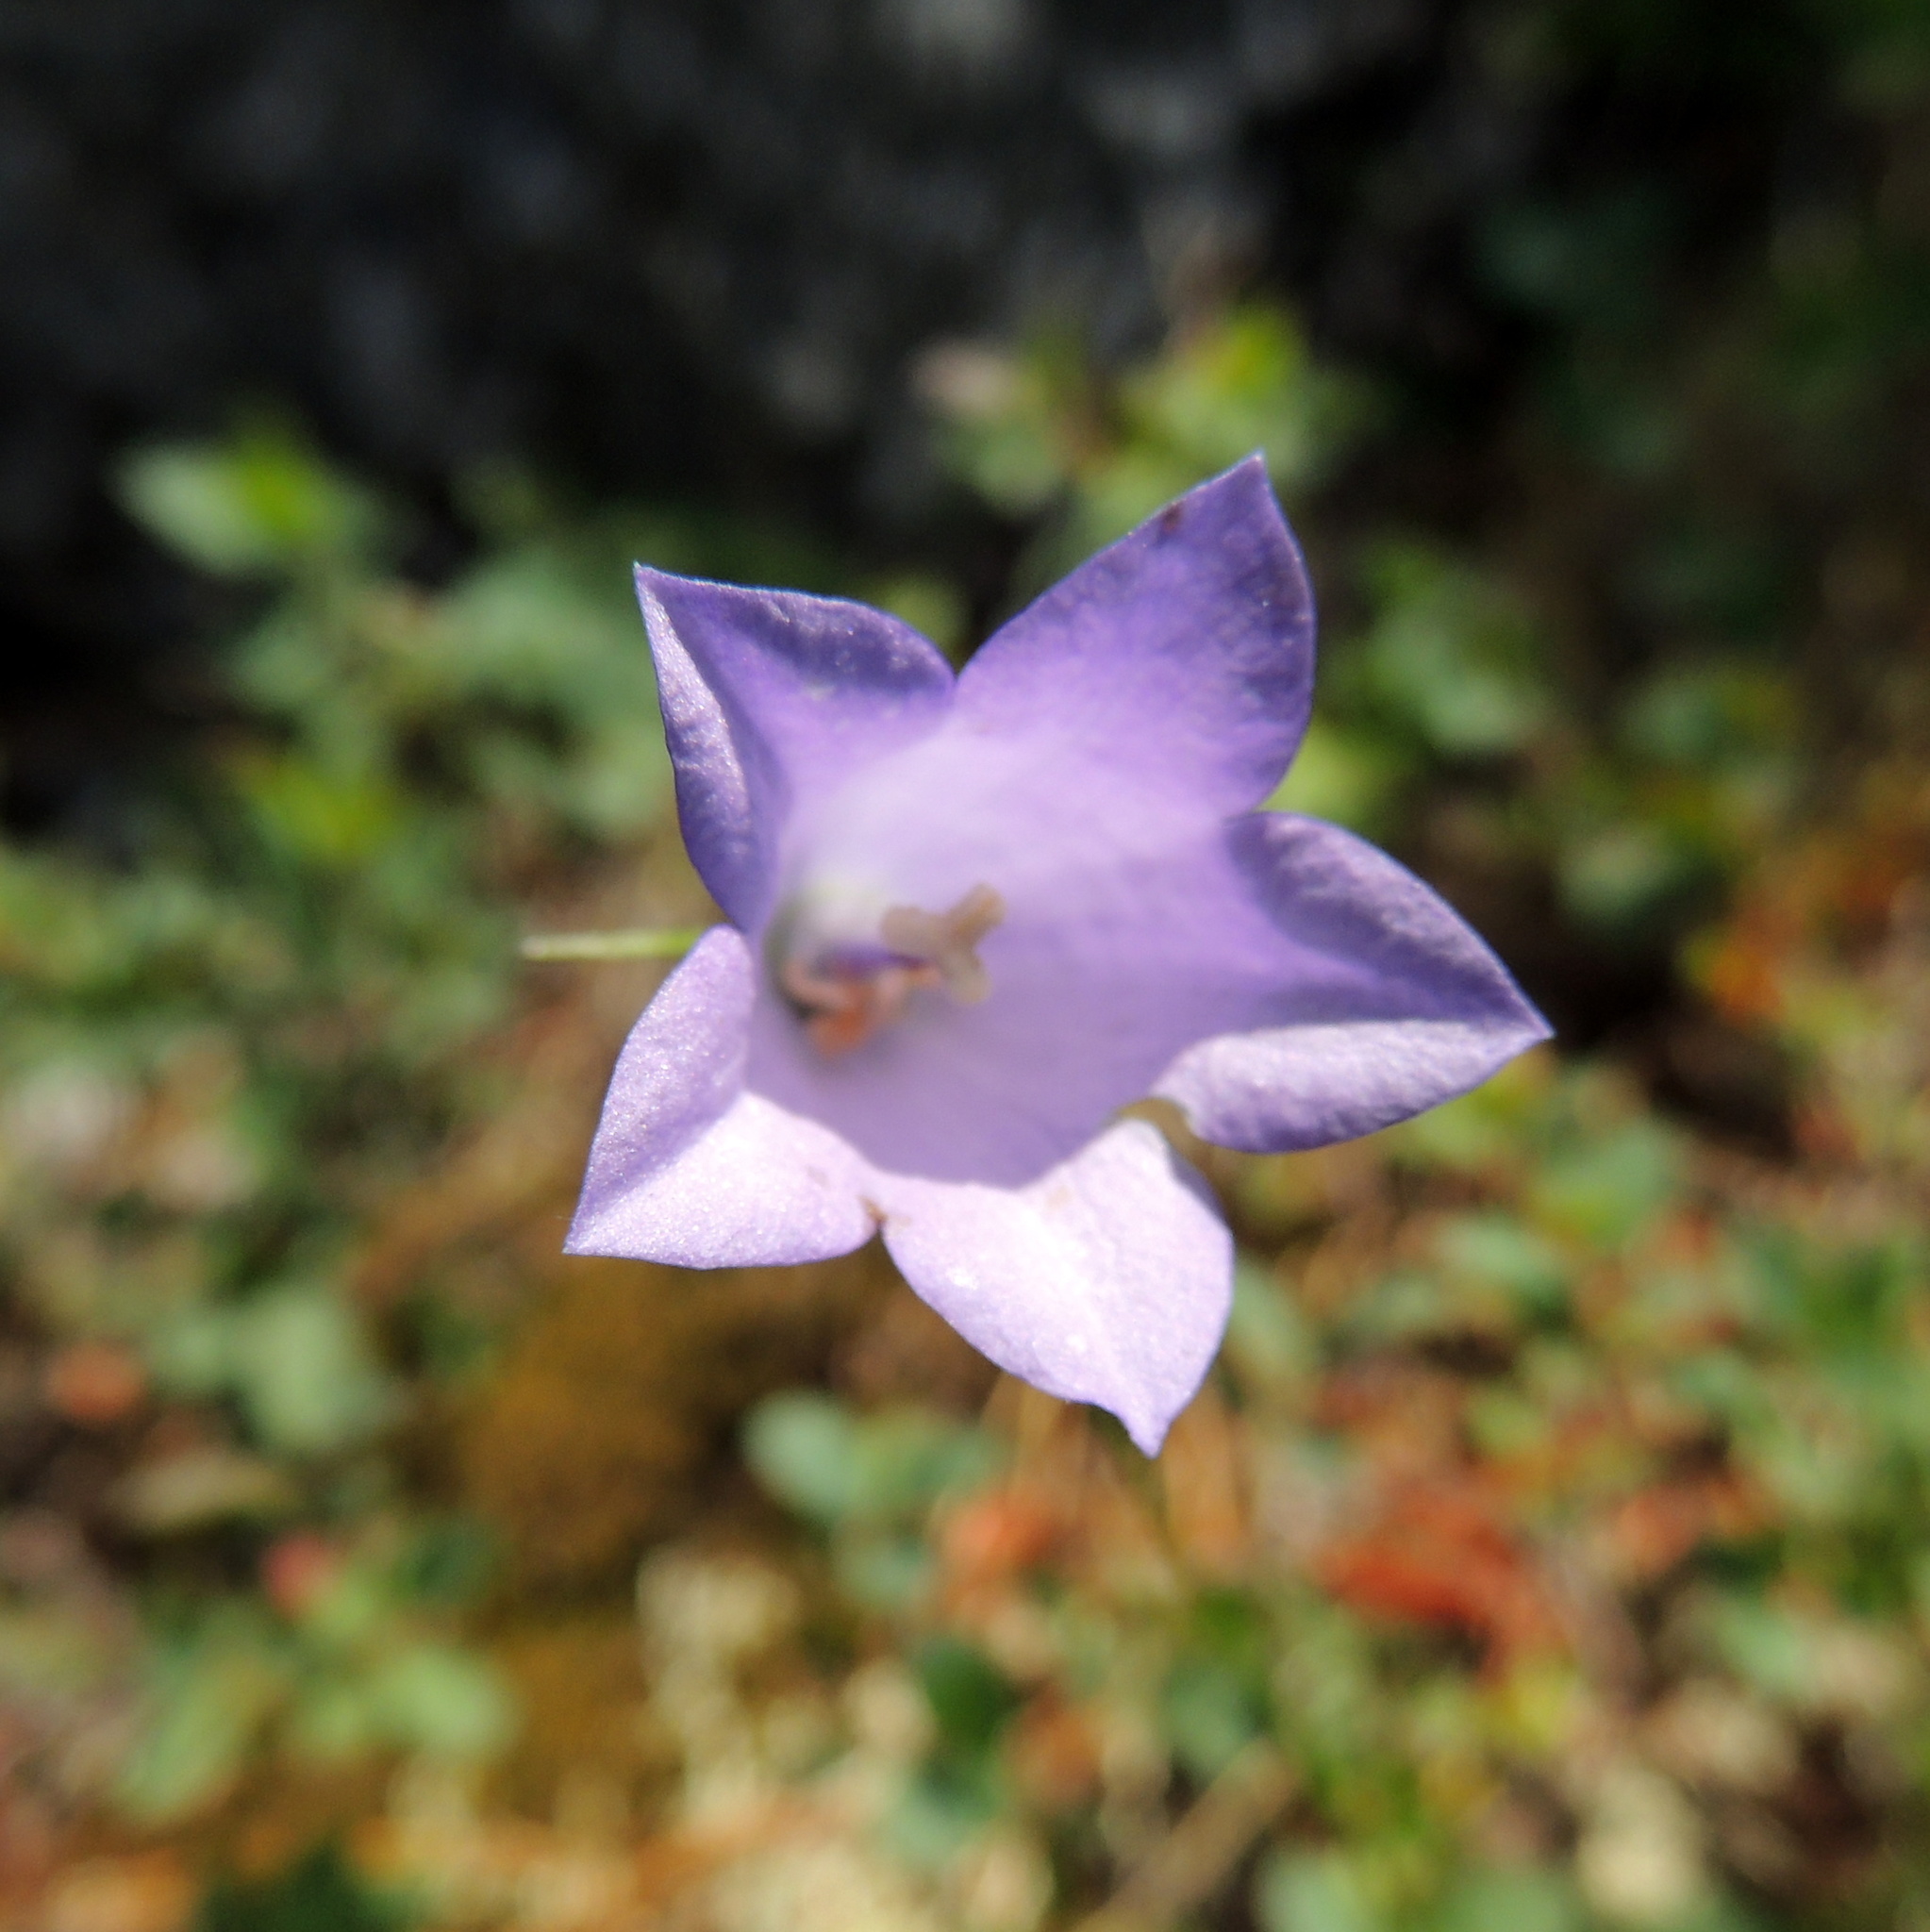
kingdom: Plantae
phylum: Tracheophyta
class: Magnoliopsida
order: Asterales
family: Campanulaceae
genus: Campanula
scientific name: Campanula rotundifolia
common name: Harebell
